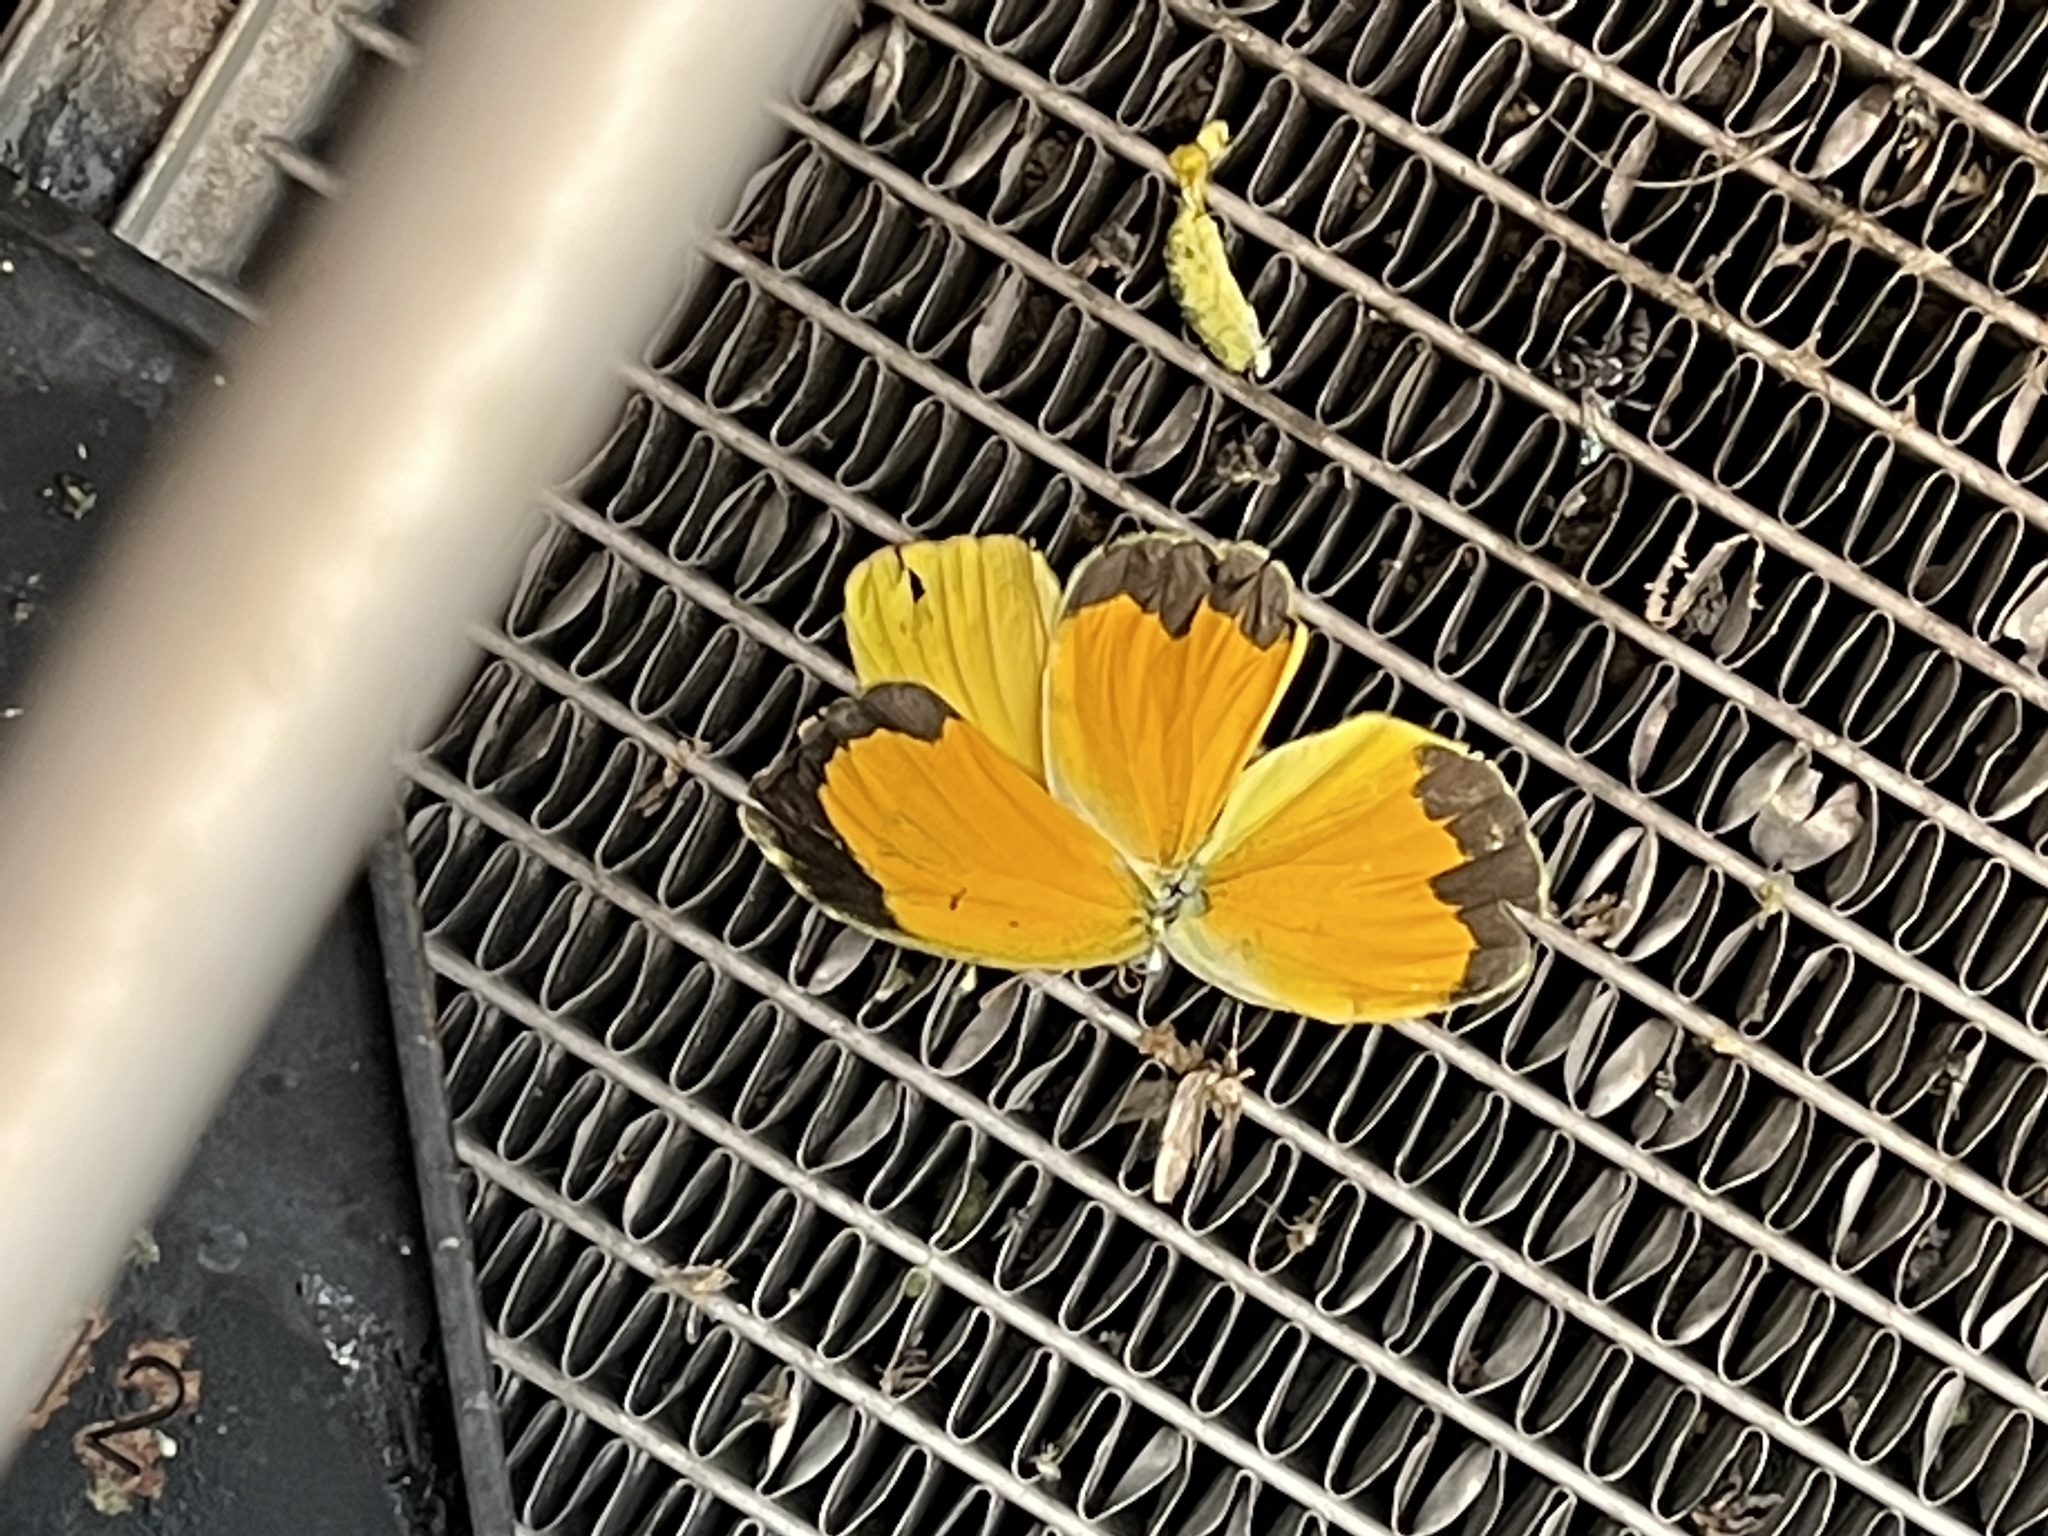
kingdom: Animalia
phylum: Arthropoda
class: Insecta
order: Lepidoptera
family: Pieridae
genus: Abaeis
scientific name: Abaeis nicippe
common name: Sleepy orange
